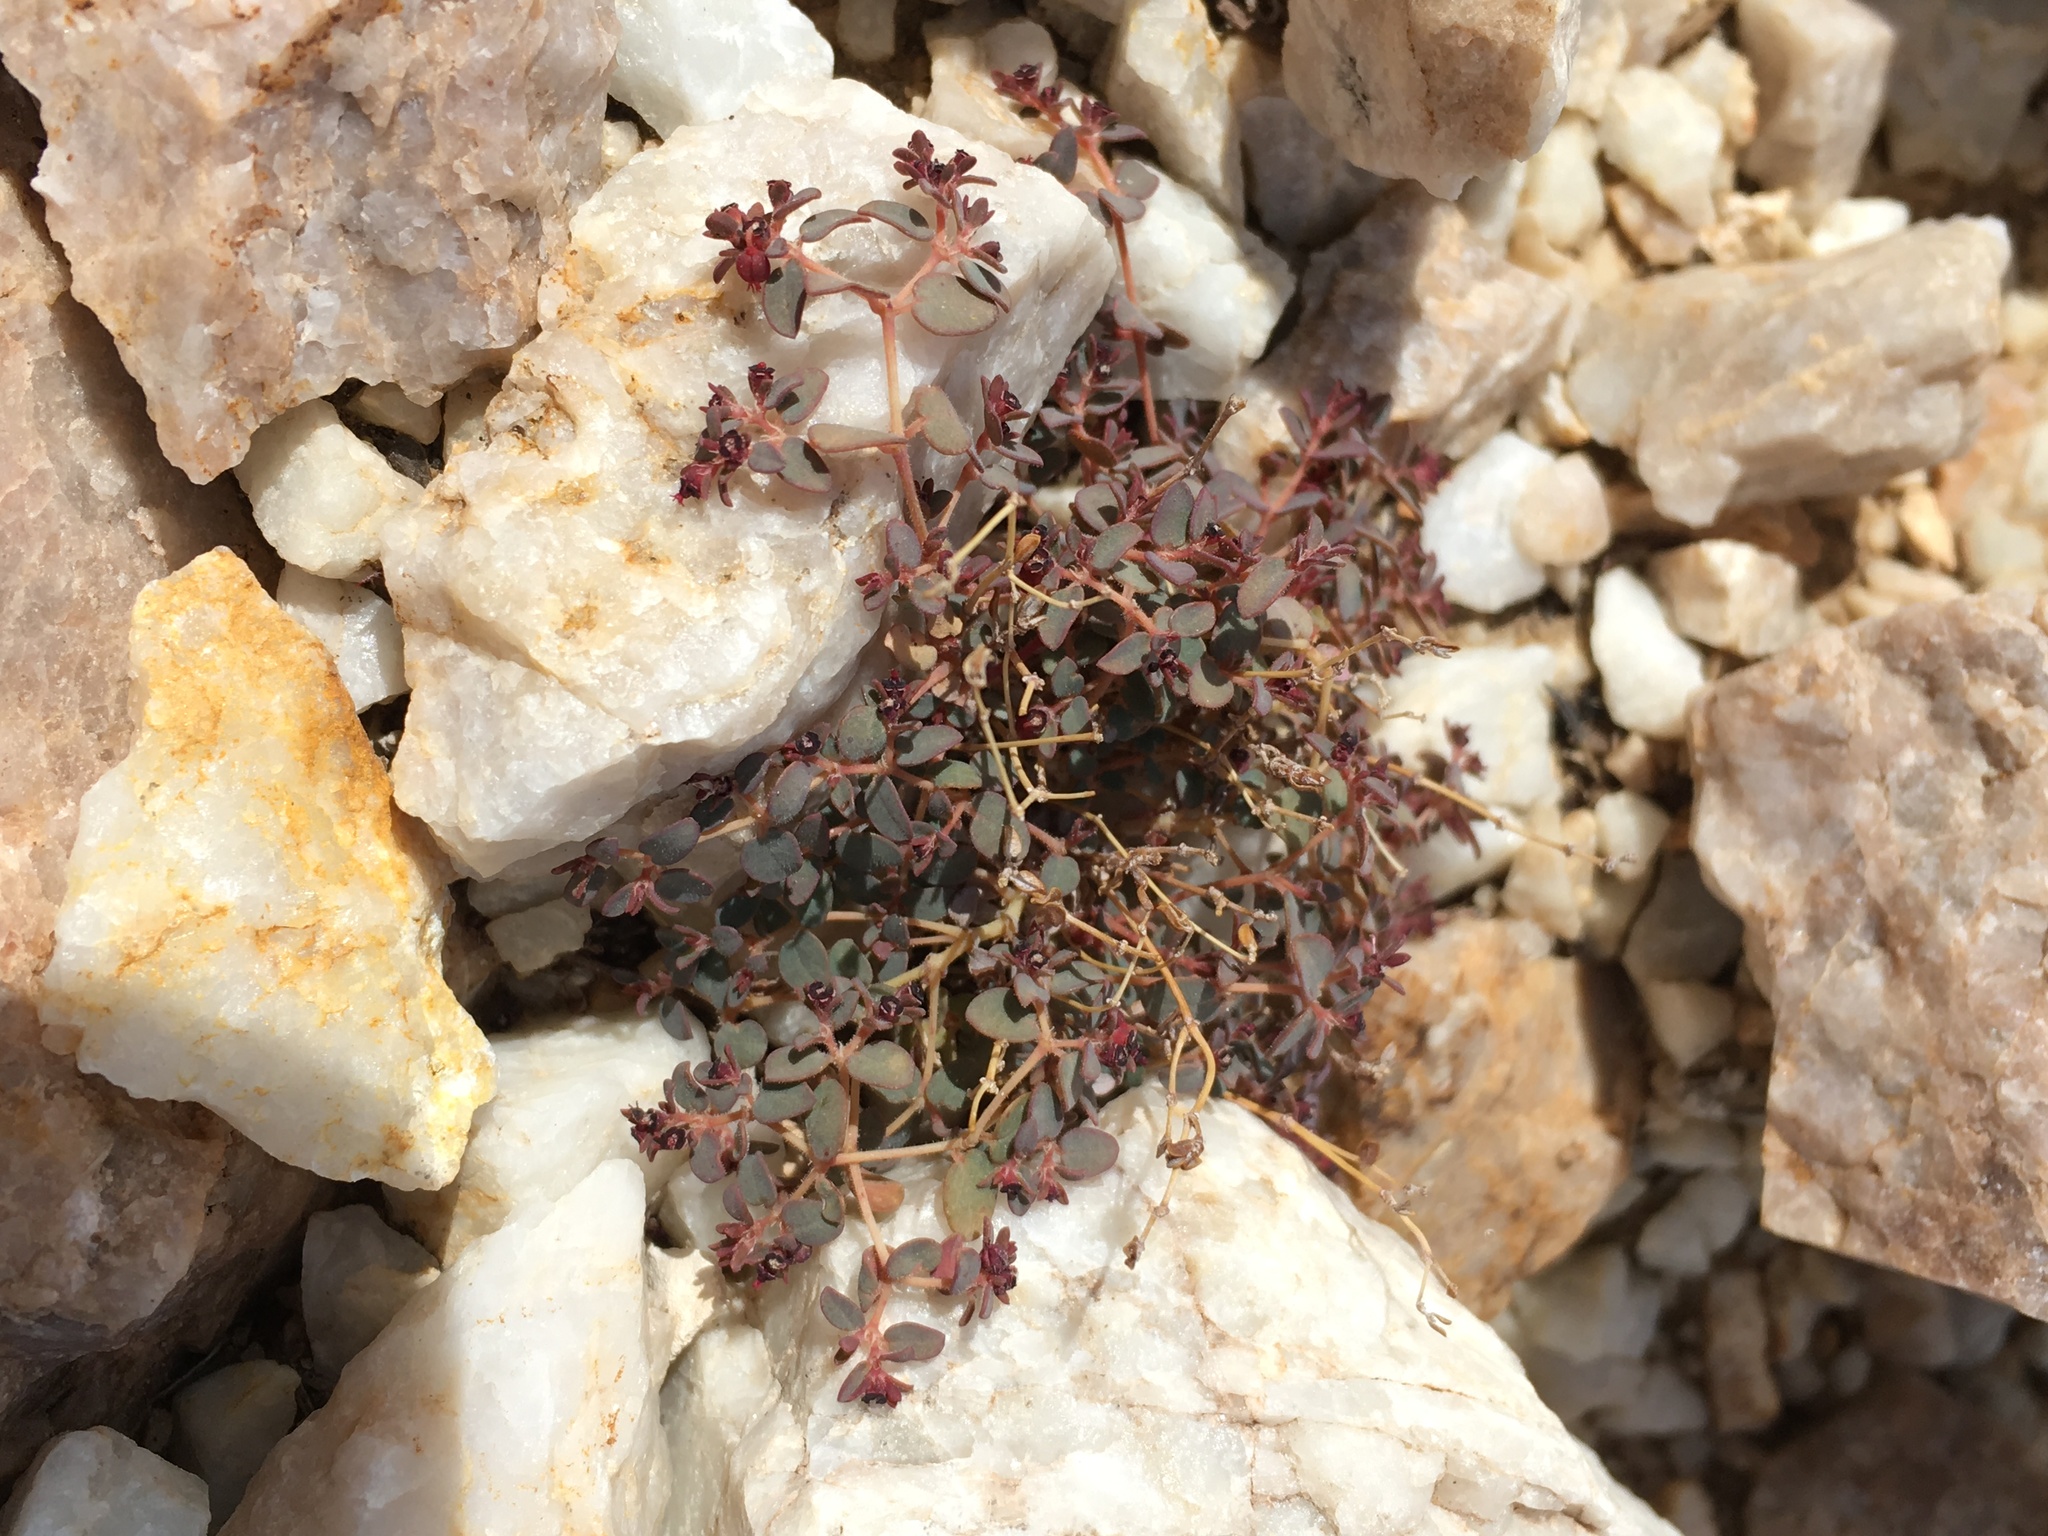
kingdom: Plantae
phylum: Tracheophyta
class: Magnoliopsida
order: Malpighiales
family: Euphorbiaceae
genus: Euphorbia
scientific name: Euphorbia polycarpa
